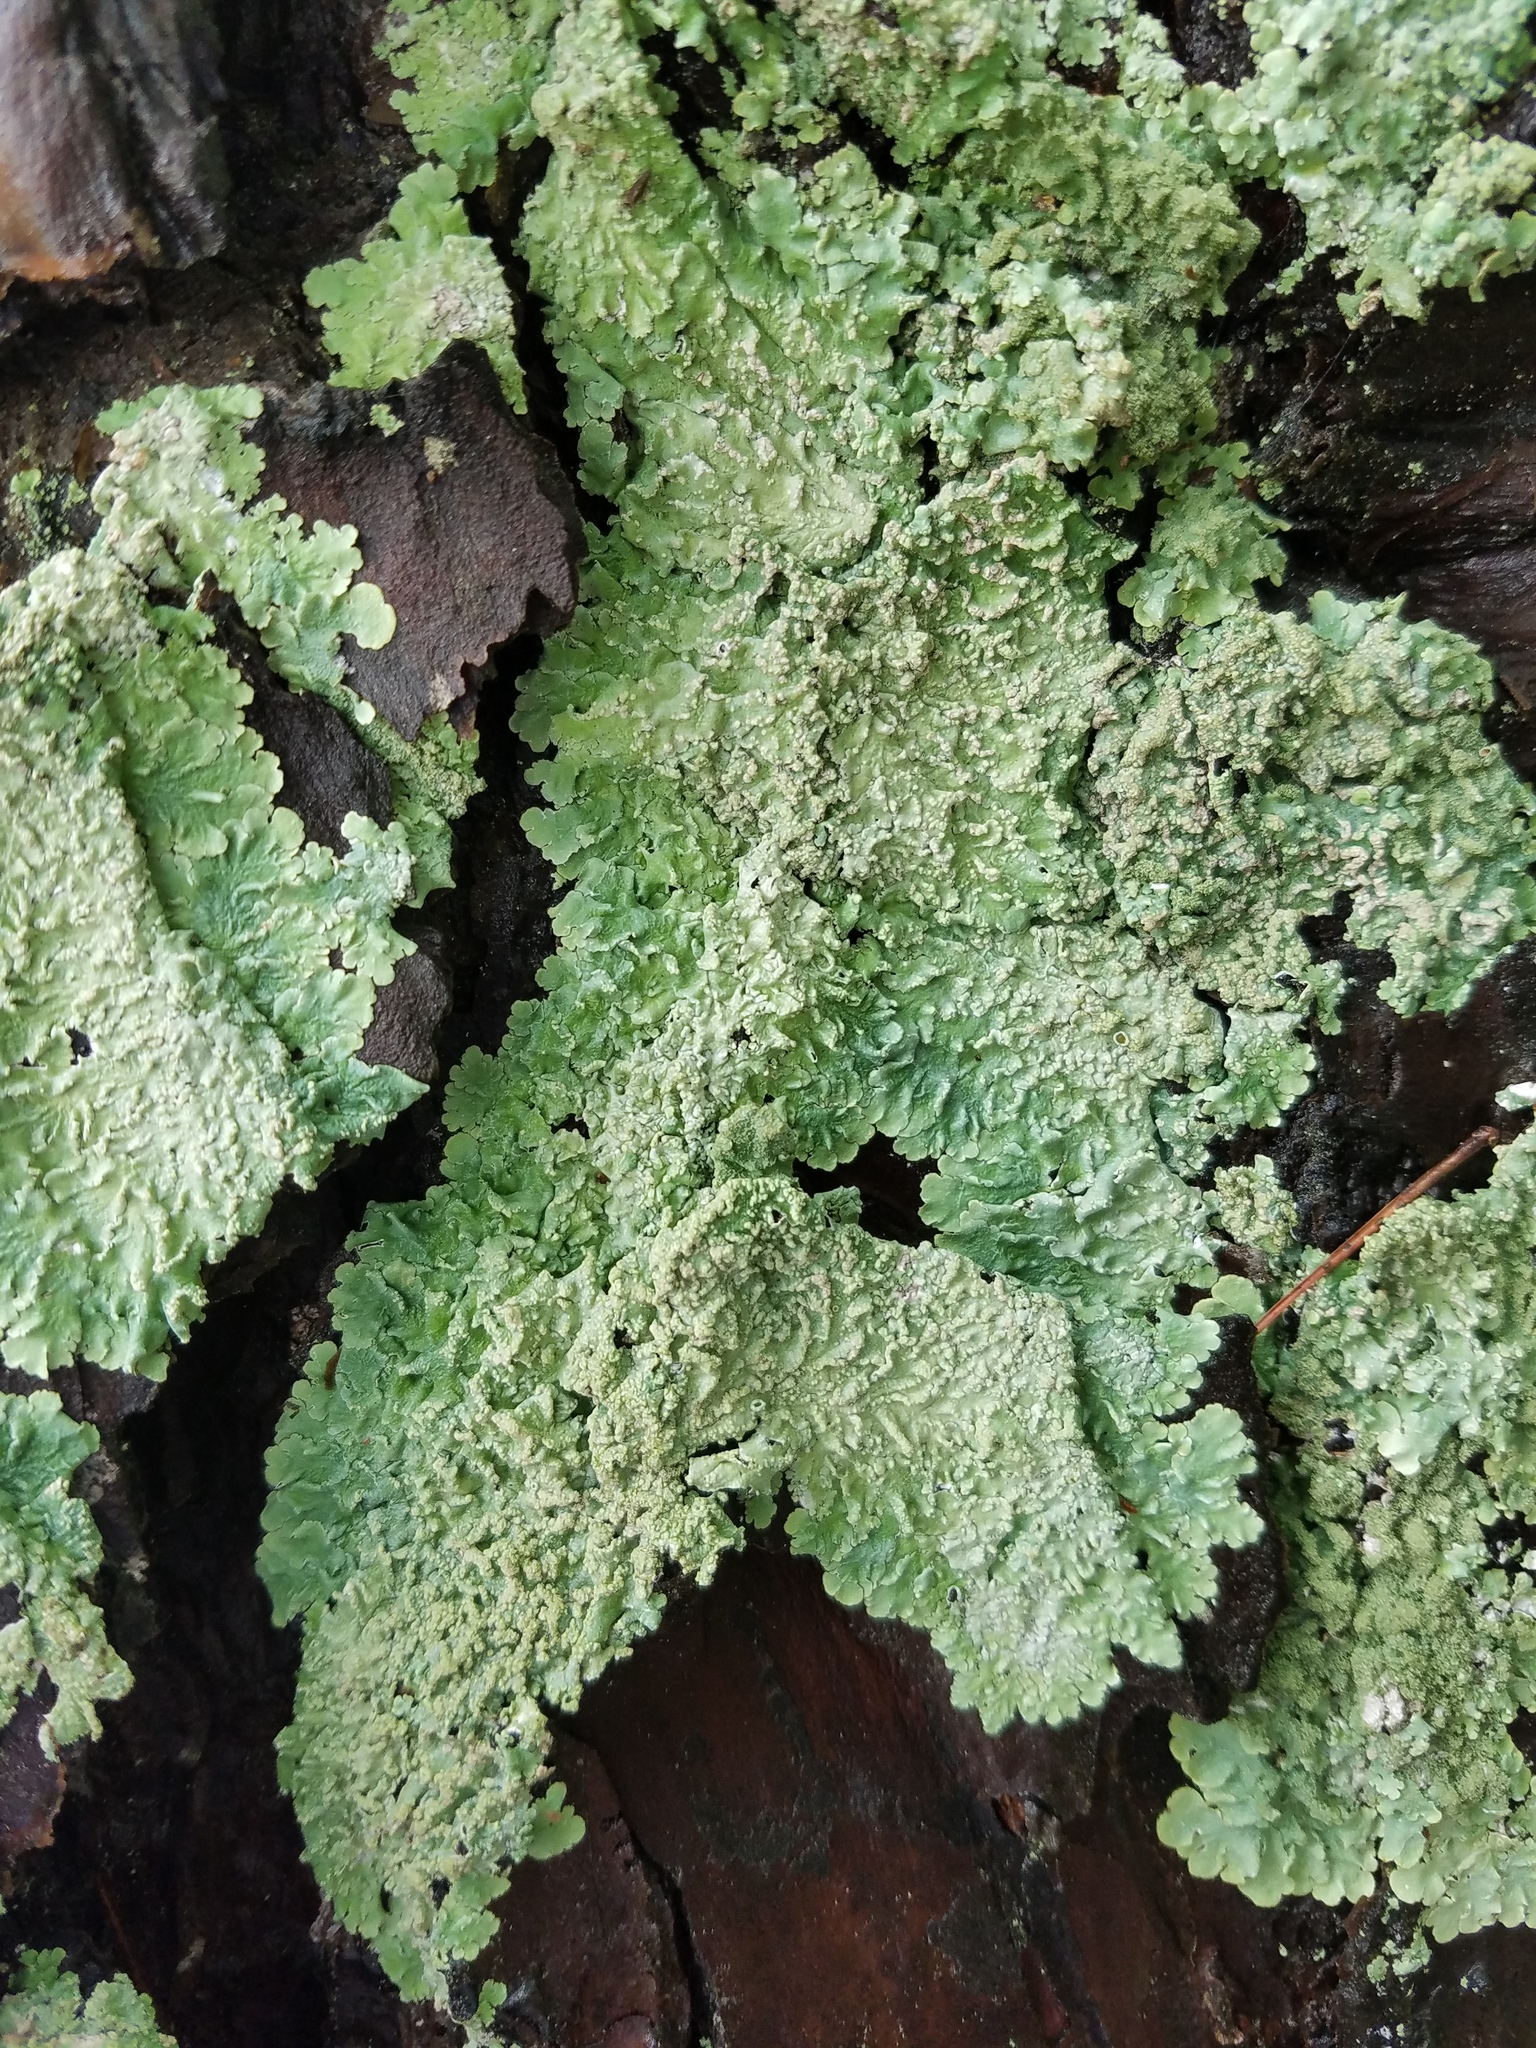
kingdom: Fungi
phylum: Ascomycota
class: Lecanoromycetes
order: Lecanorales
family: Parmeliaceae
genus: Canoparmelia
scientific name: Canoparmelia texana
